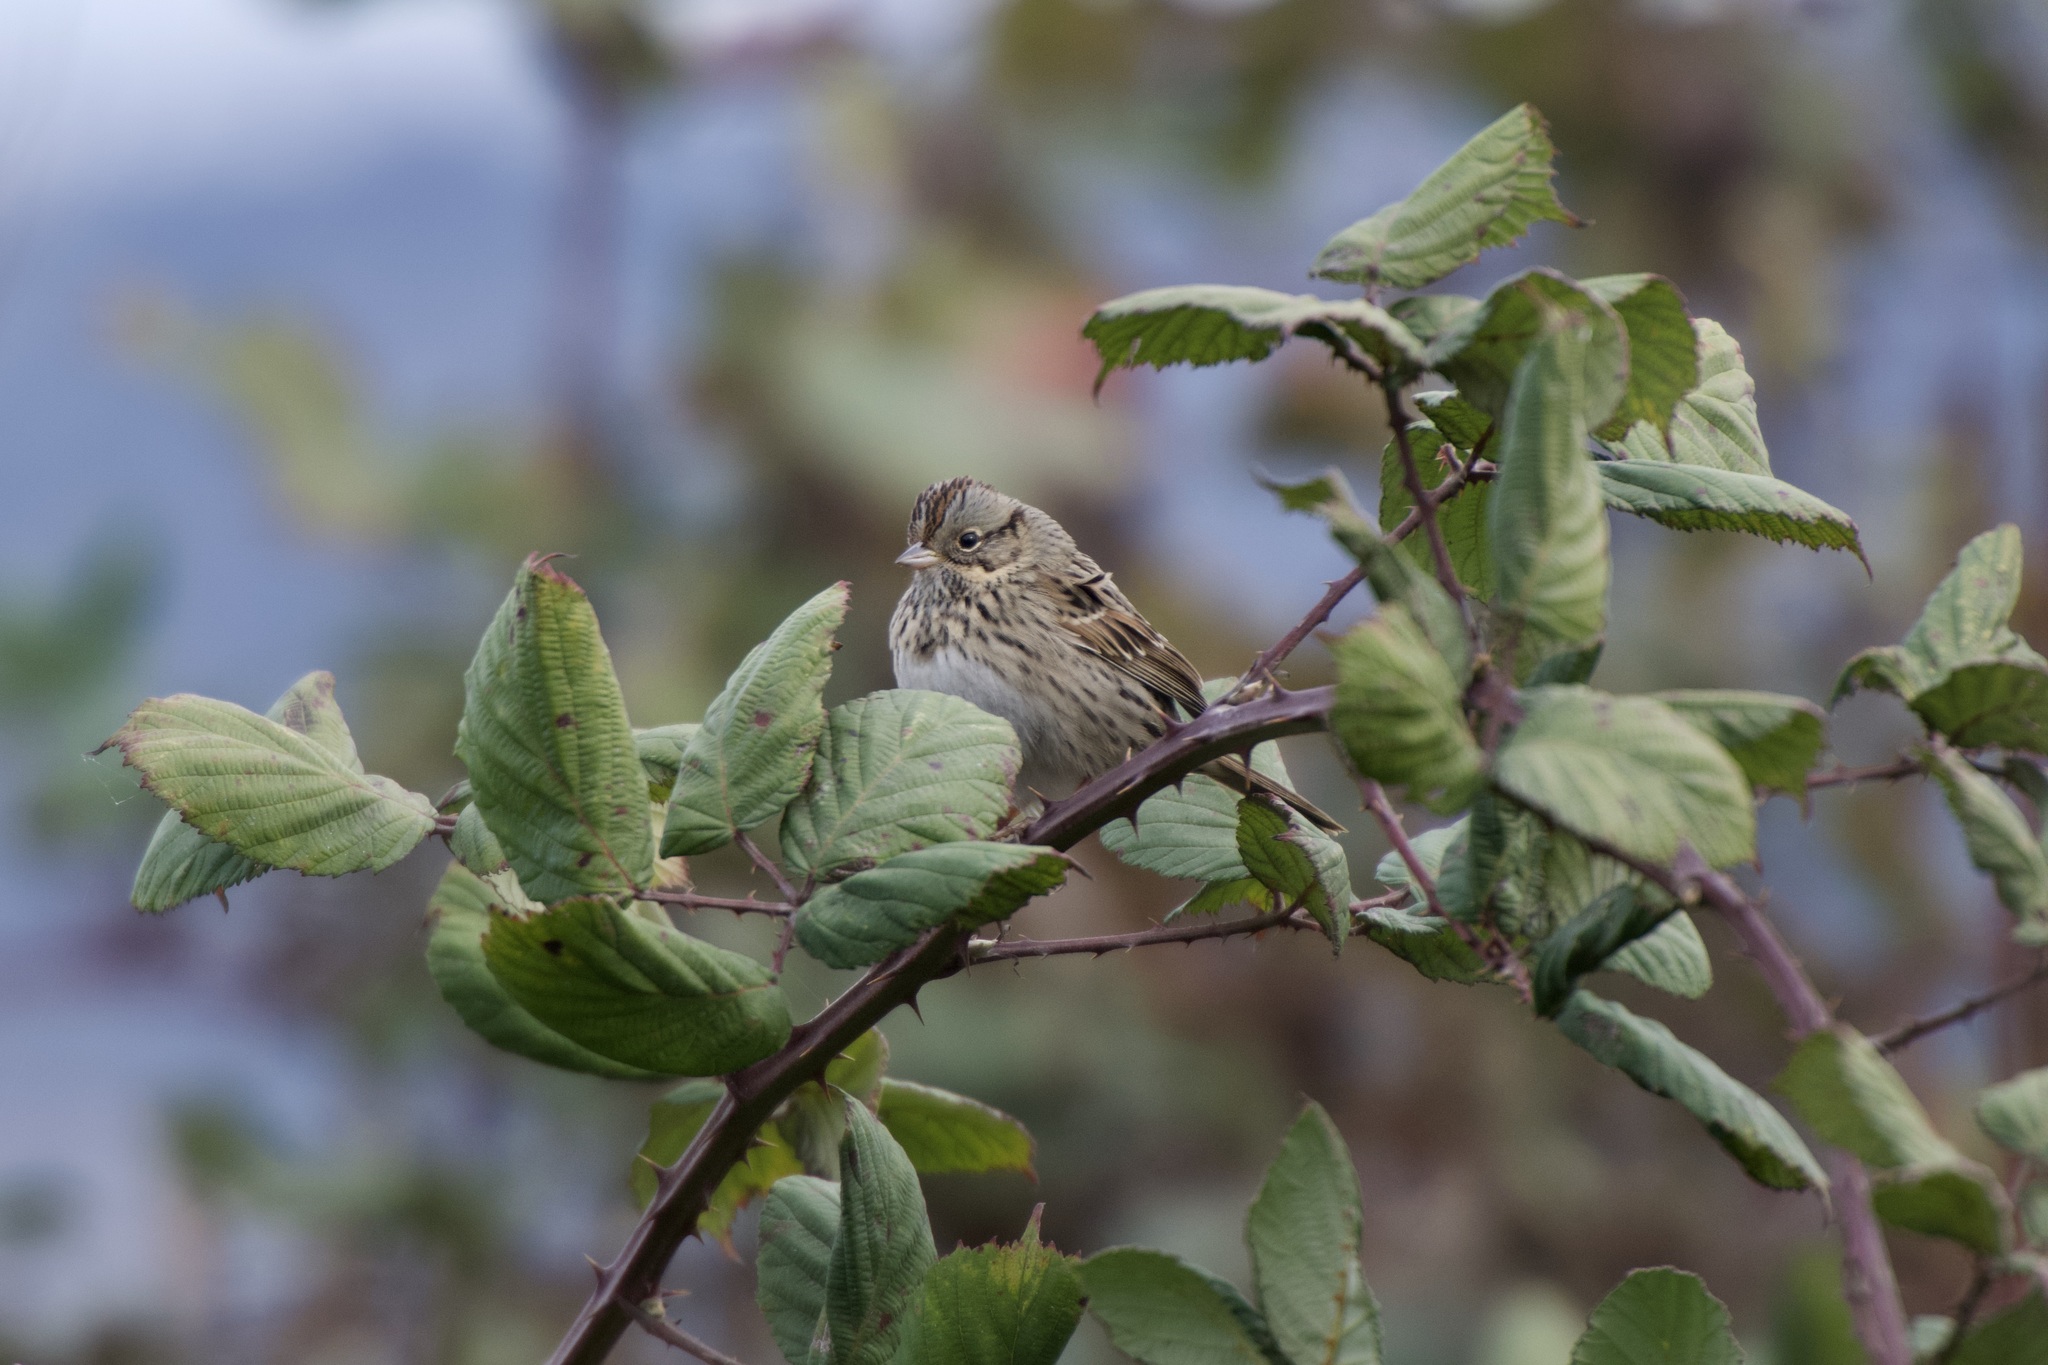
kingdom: Animalia
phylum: Chordata
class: Aves
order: Passeriformes
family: Passerellidae
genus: Melospiza
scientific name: Melospiza lincolnii
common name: Lincoln's sparrow
